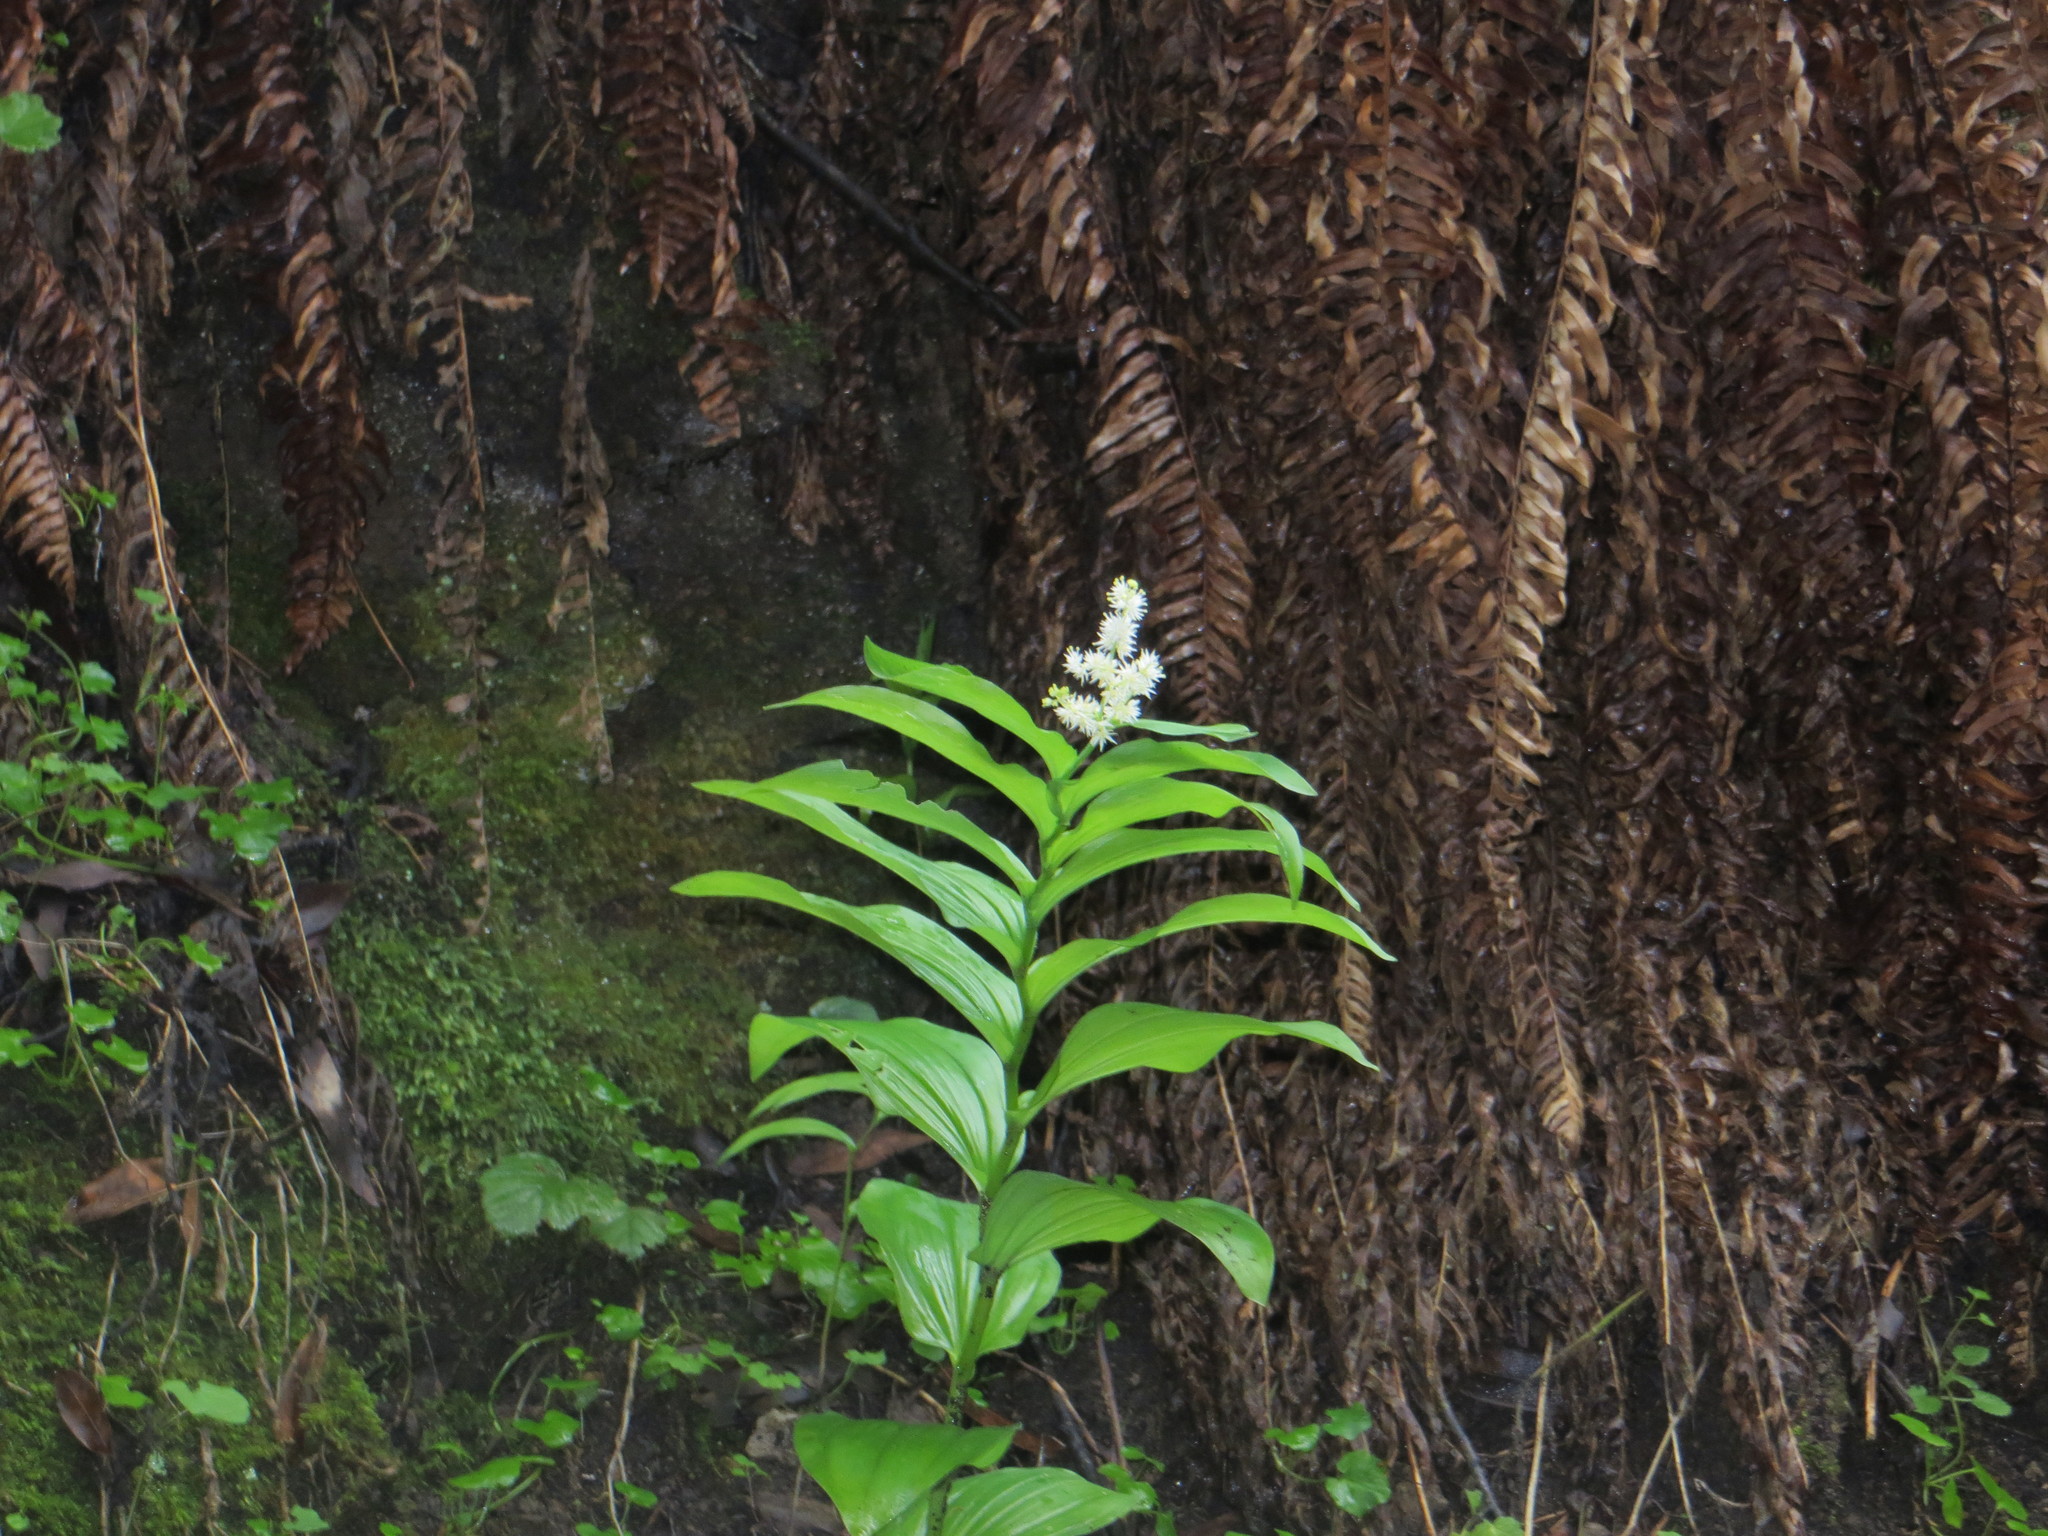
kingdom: Plantae
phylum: Tracheophyta
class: Liliopsida
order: Asparagales
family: Asparagaceae
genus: Maianthemum
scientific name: Maianthemum racemosum
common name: False spikenard
